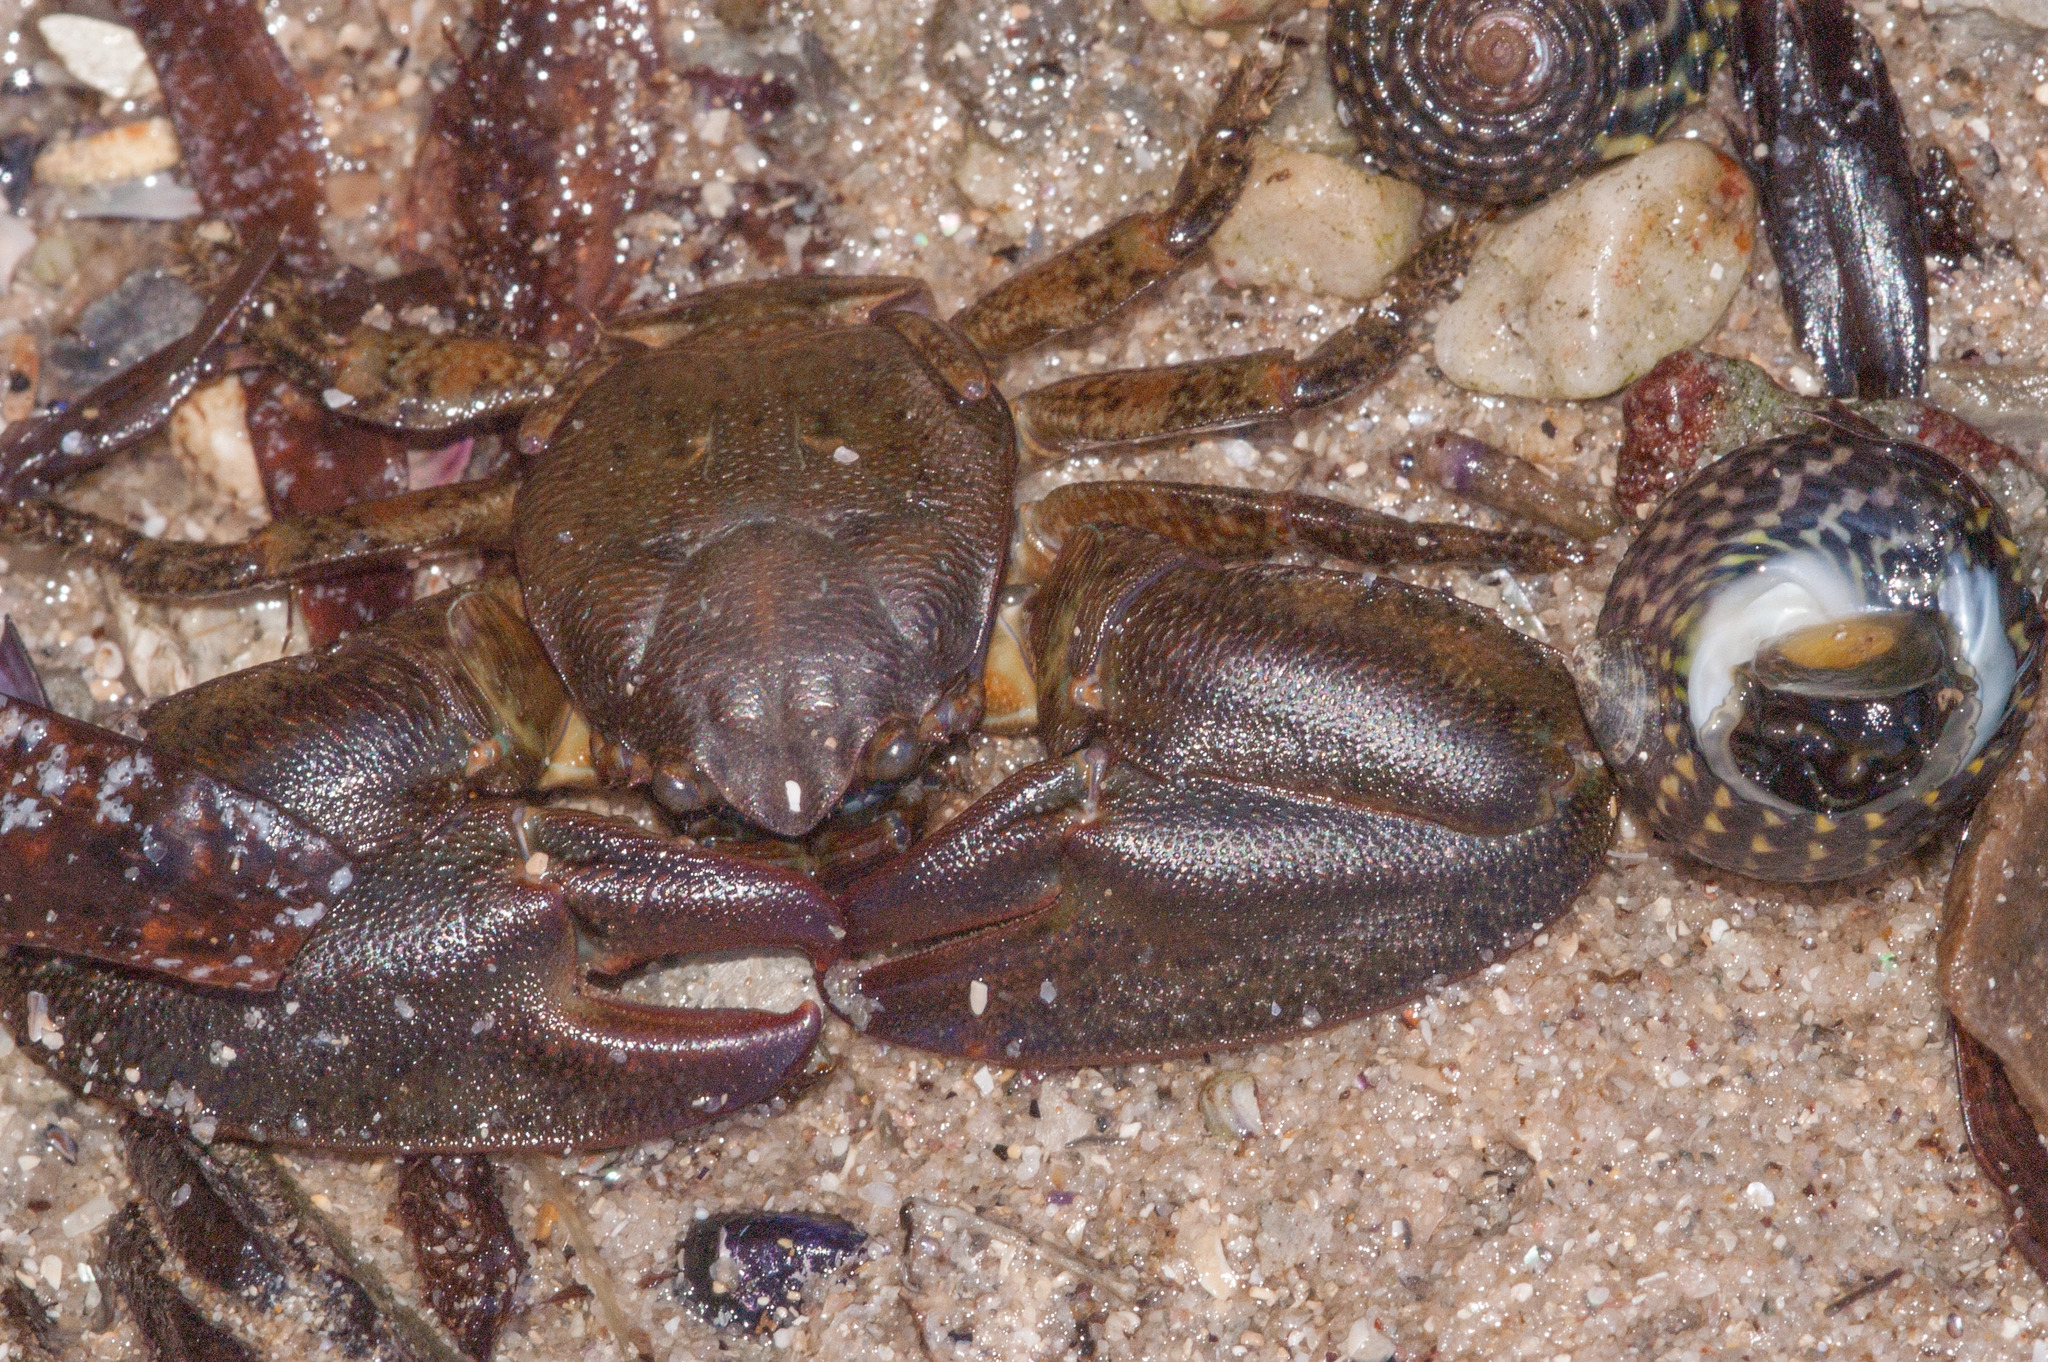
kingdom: Animalia
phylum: Arthropoda
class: Malacostraca
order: Decapoda
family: Porcellanidae
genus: Petrolisthes
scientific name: Petrolisthes elongatus
